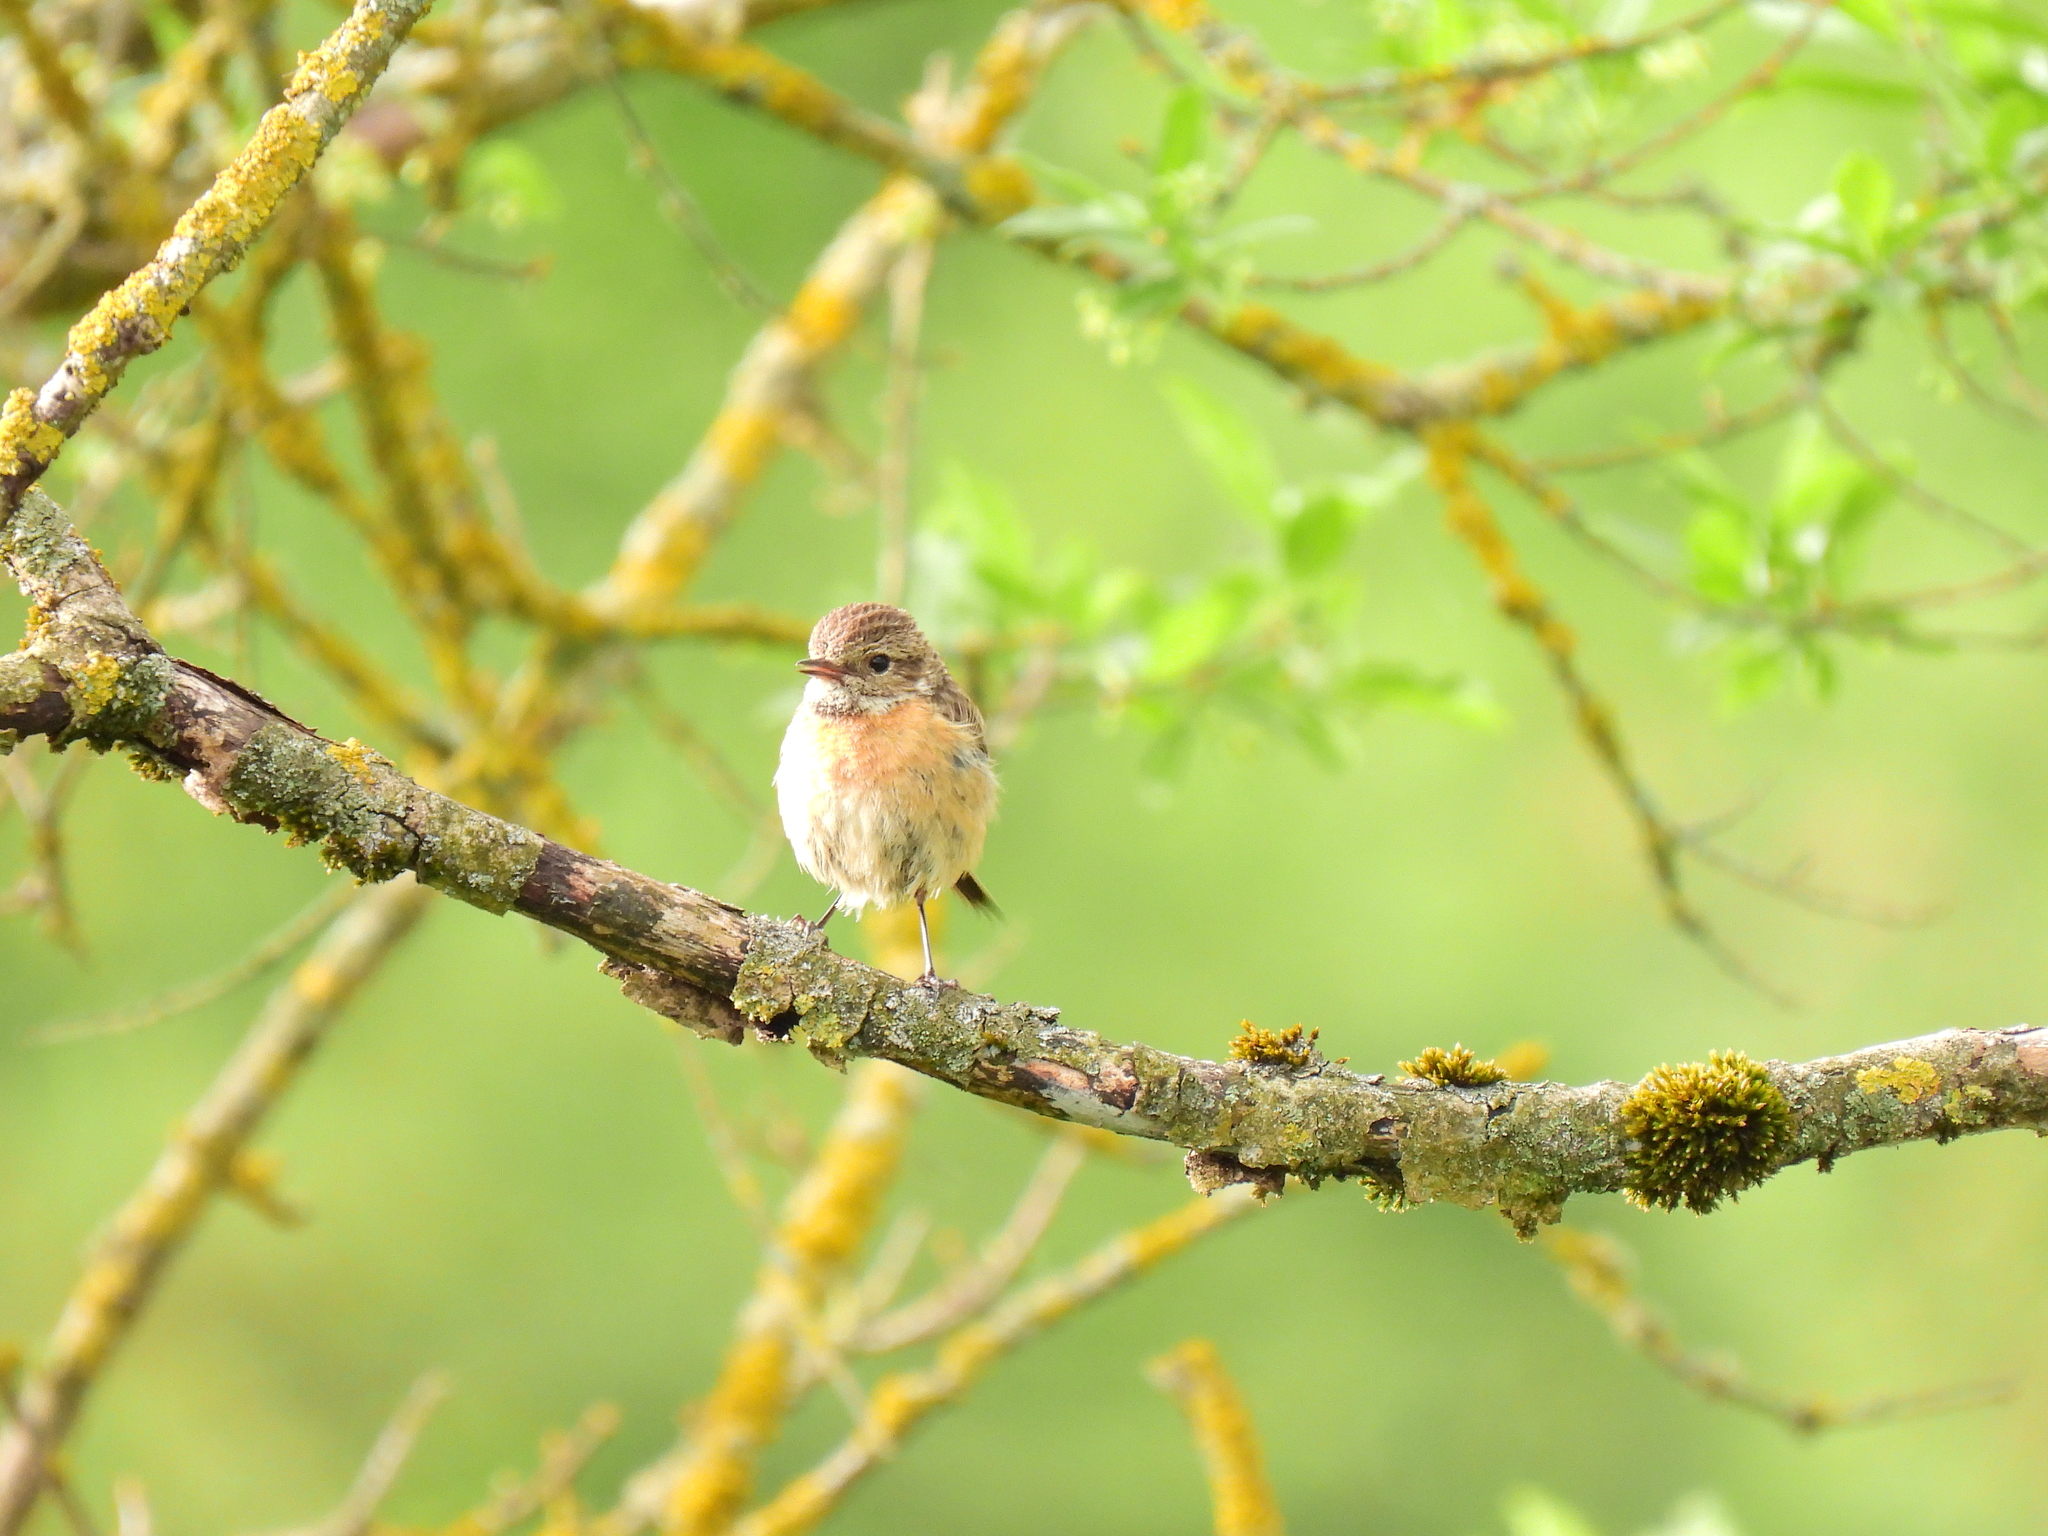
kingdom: Animalia
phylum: Chordata
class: Aves
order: Passeriformes
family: Muscicapidae
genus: Saxicola
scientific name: Saxicola rubicola
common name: European stonechat
